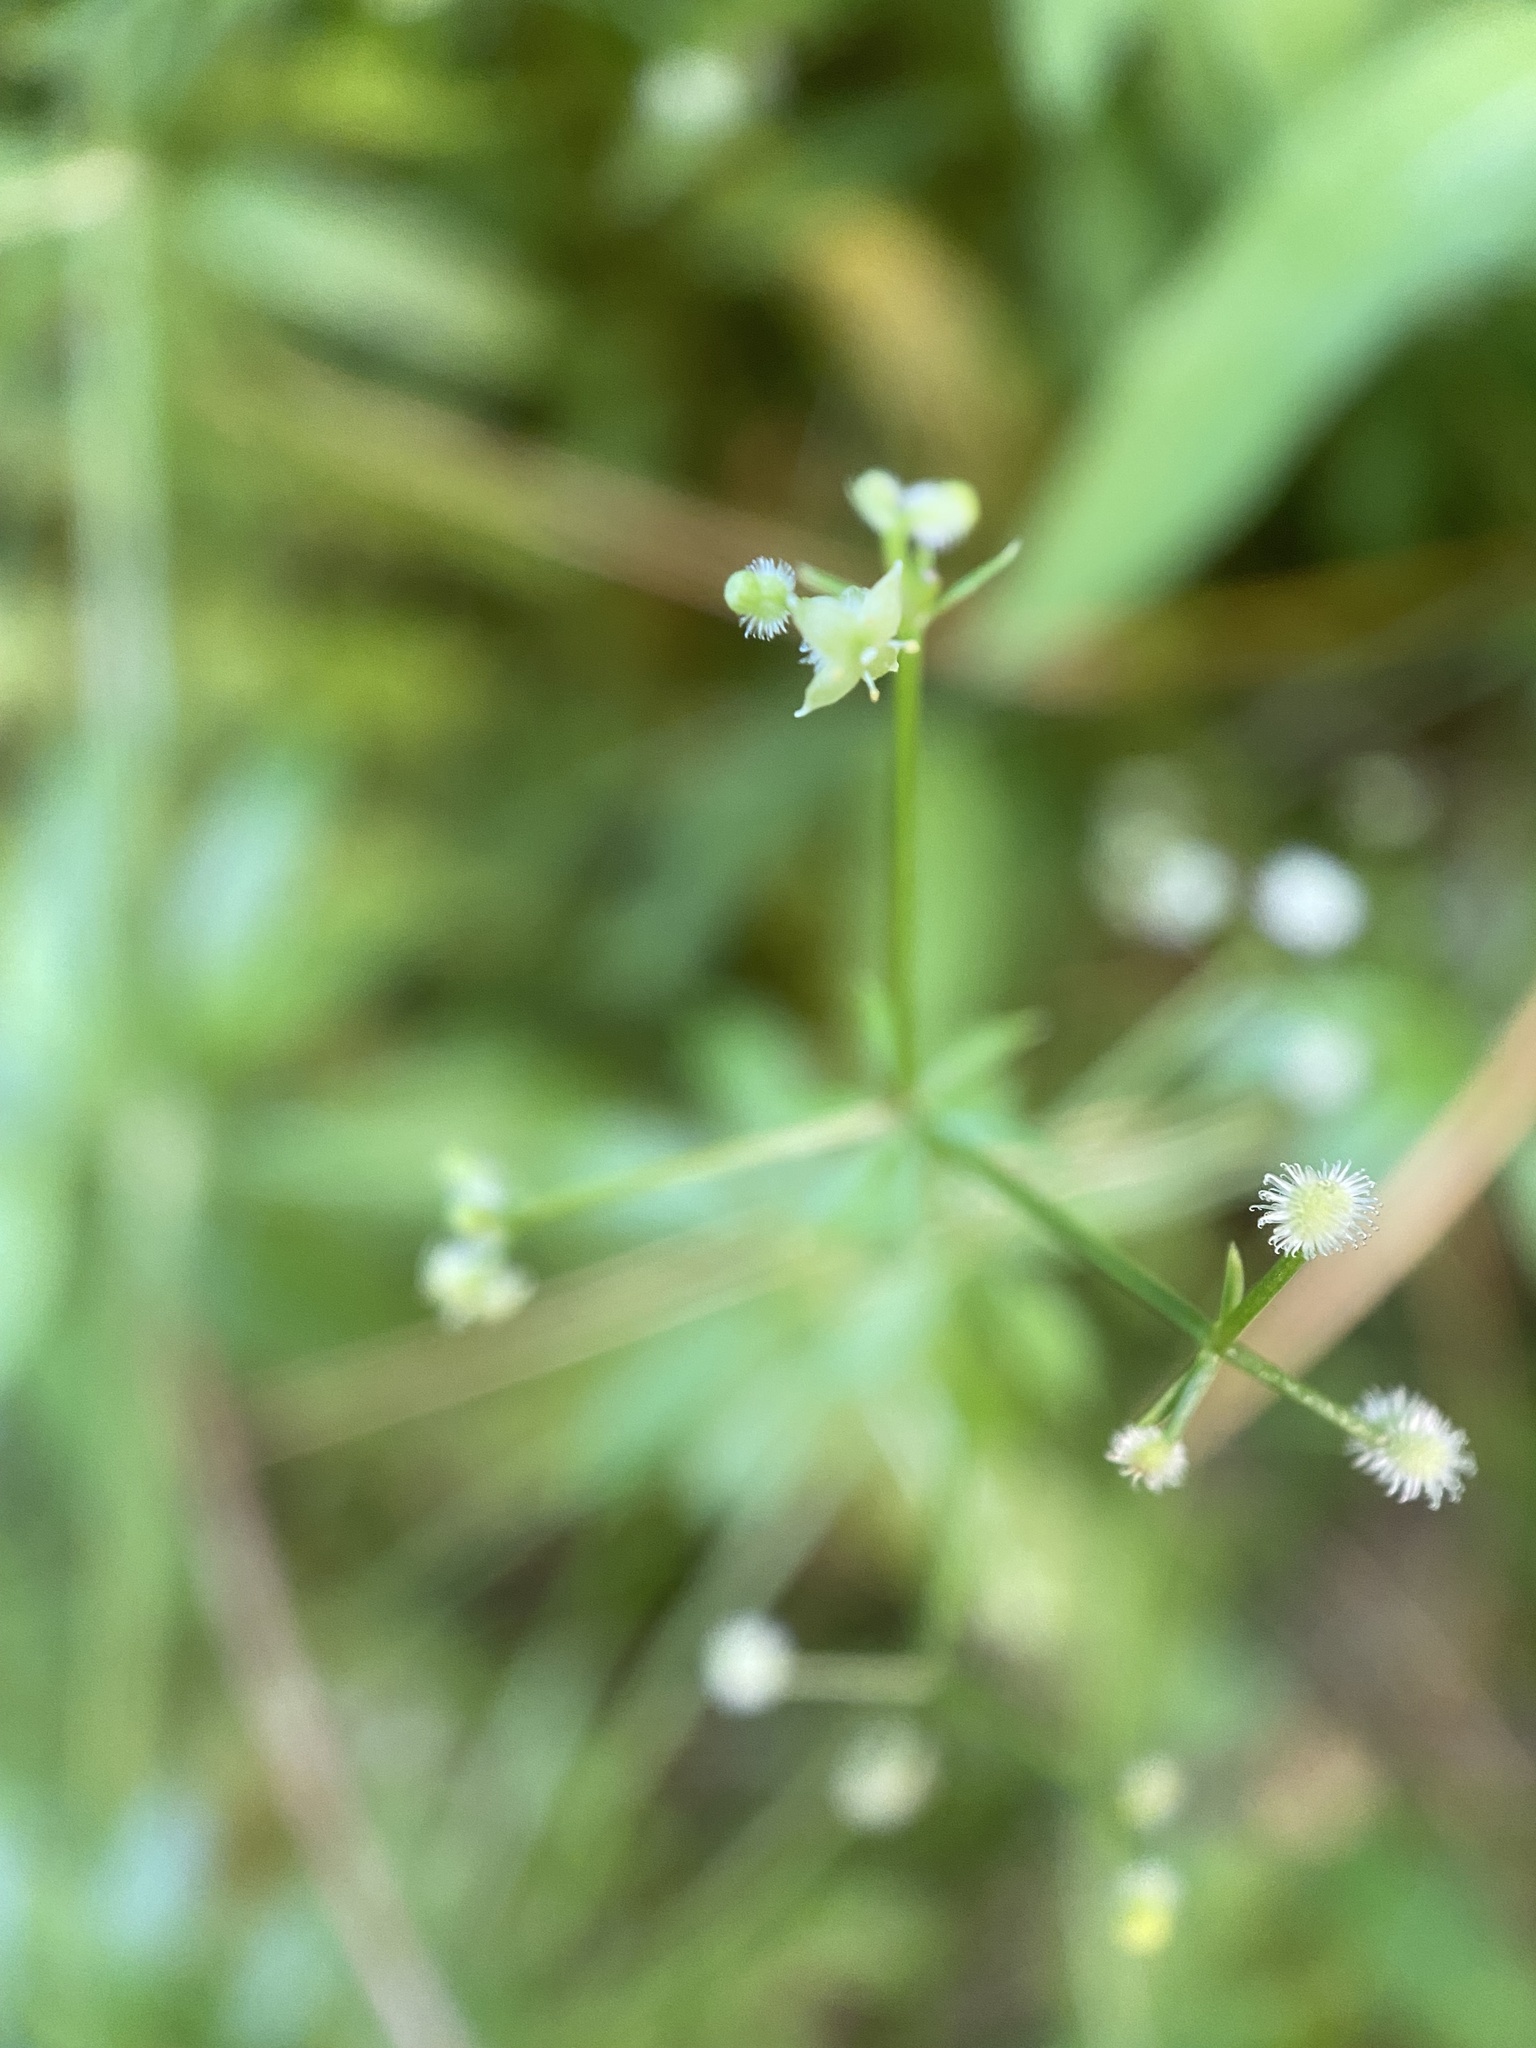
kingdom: Plantae
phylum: Tracheophyta
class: Magnoliopsida
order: Gentianales
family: Rubiaceae
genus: Galium
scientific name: Galium triflorum
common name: Fragrant bedstraw
